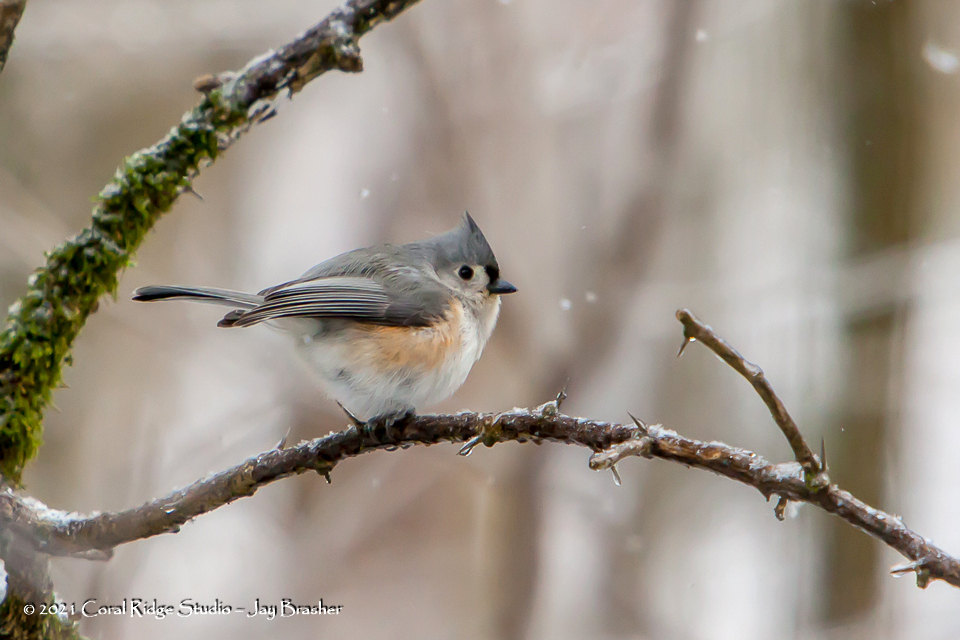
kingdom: Animalia
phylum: Chordata
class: Aves
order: Passeriformes
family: Paridae
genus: Baeolophus
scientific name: Baeolophus bicolor
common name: Tufted titmouse
